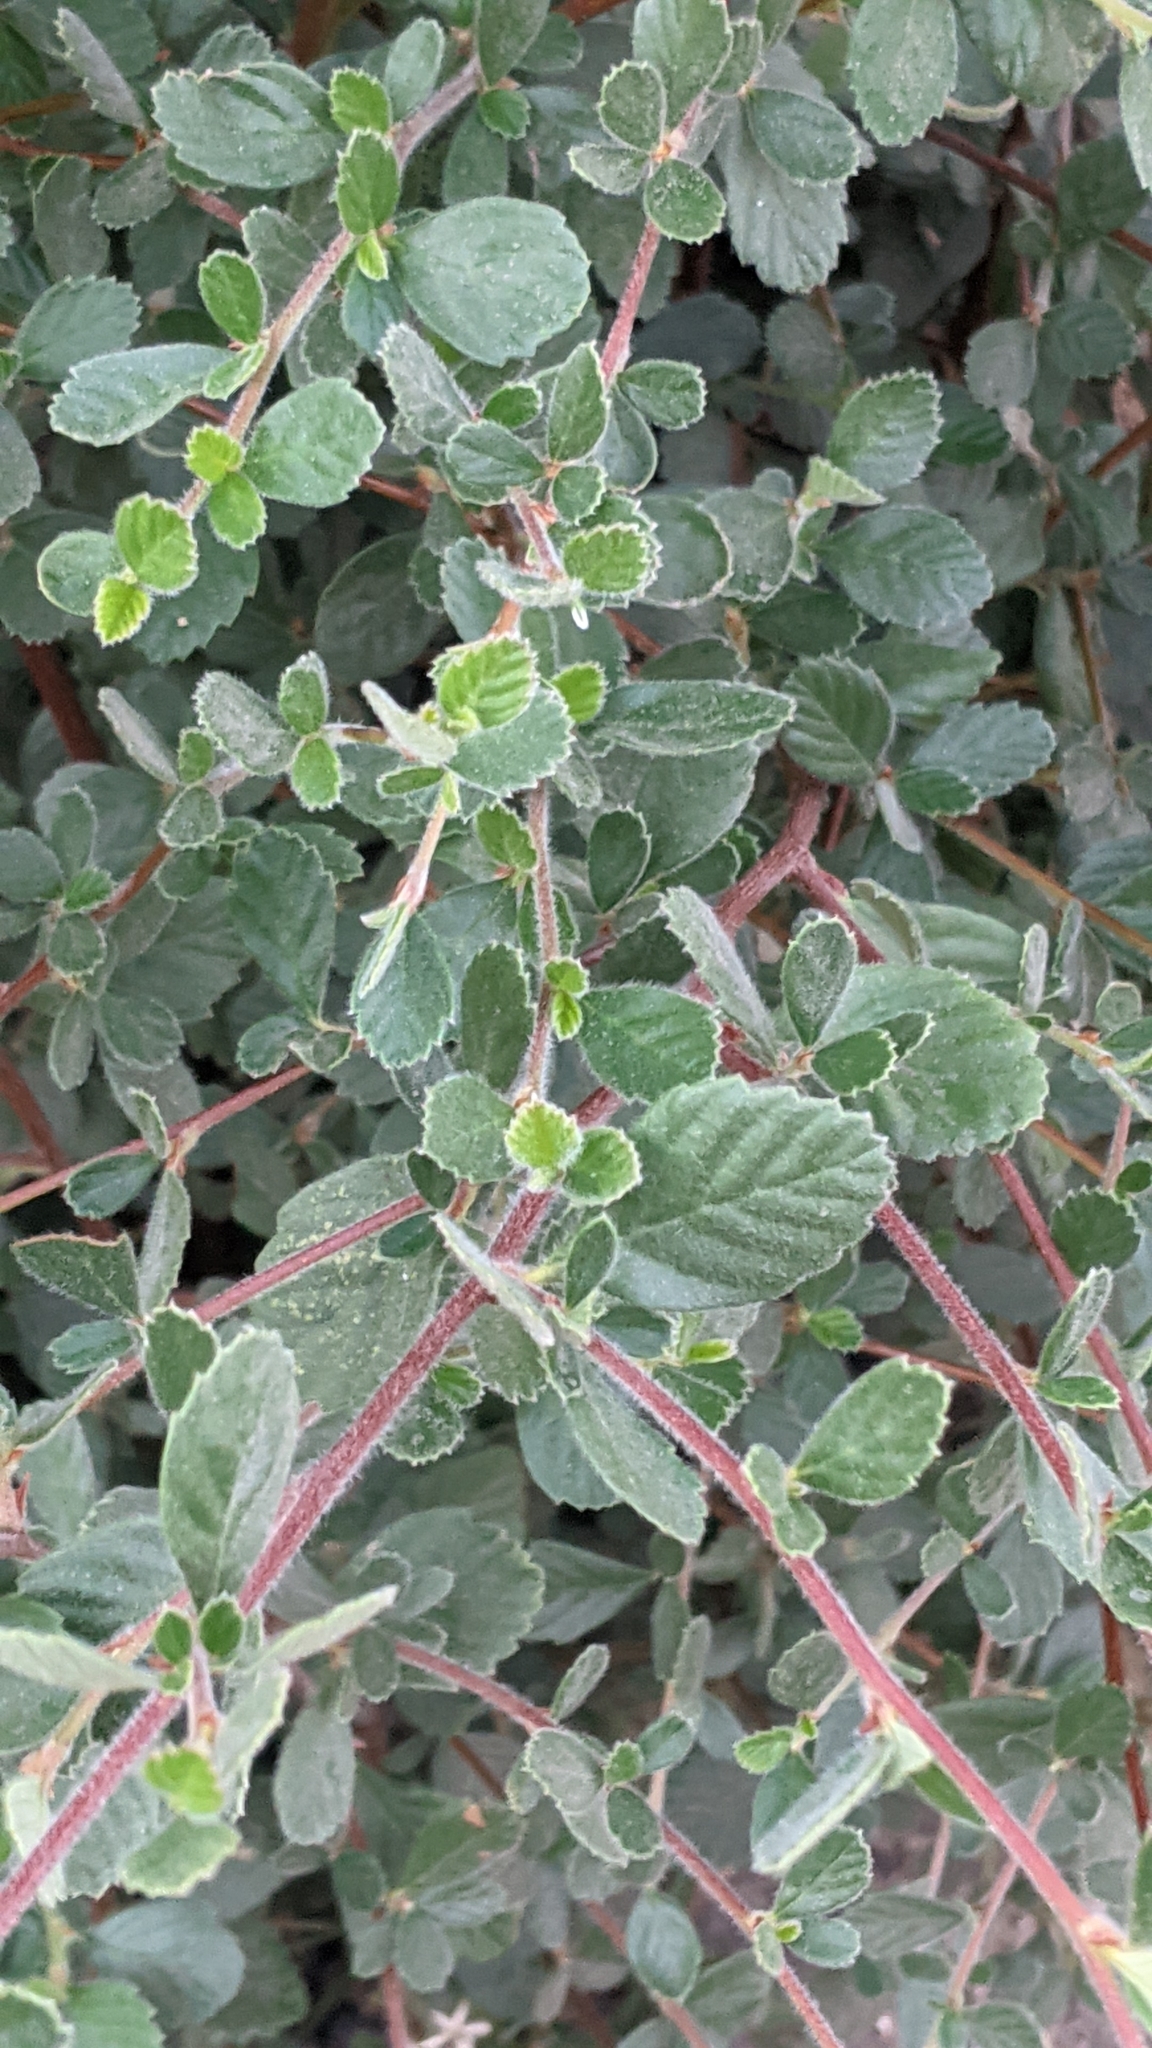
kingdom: Plantae
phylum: Tracheophyta
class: Magnoliopsida
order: Rosales
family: Rosaceae
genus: Cercocarpus
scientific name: Cercocarpus betuloides
